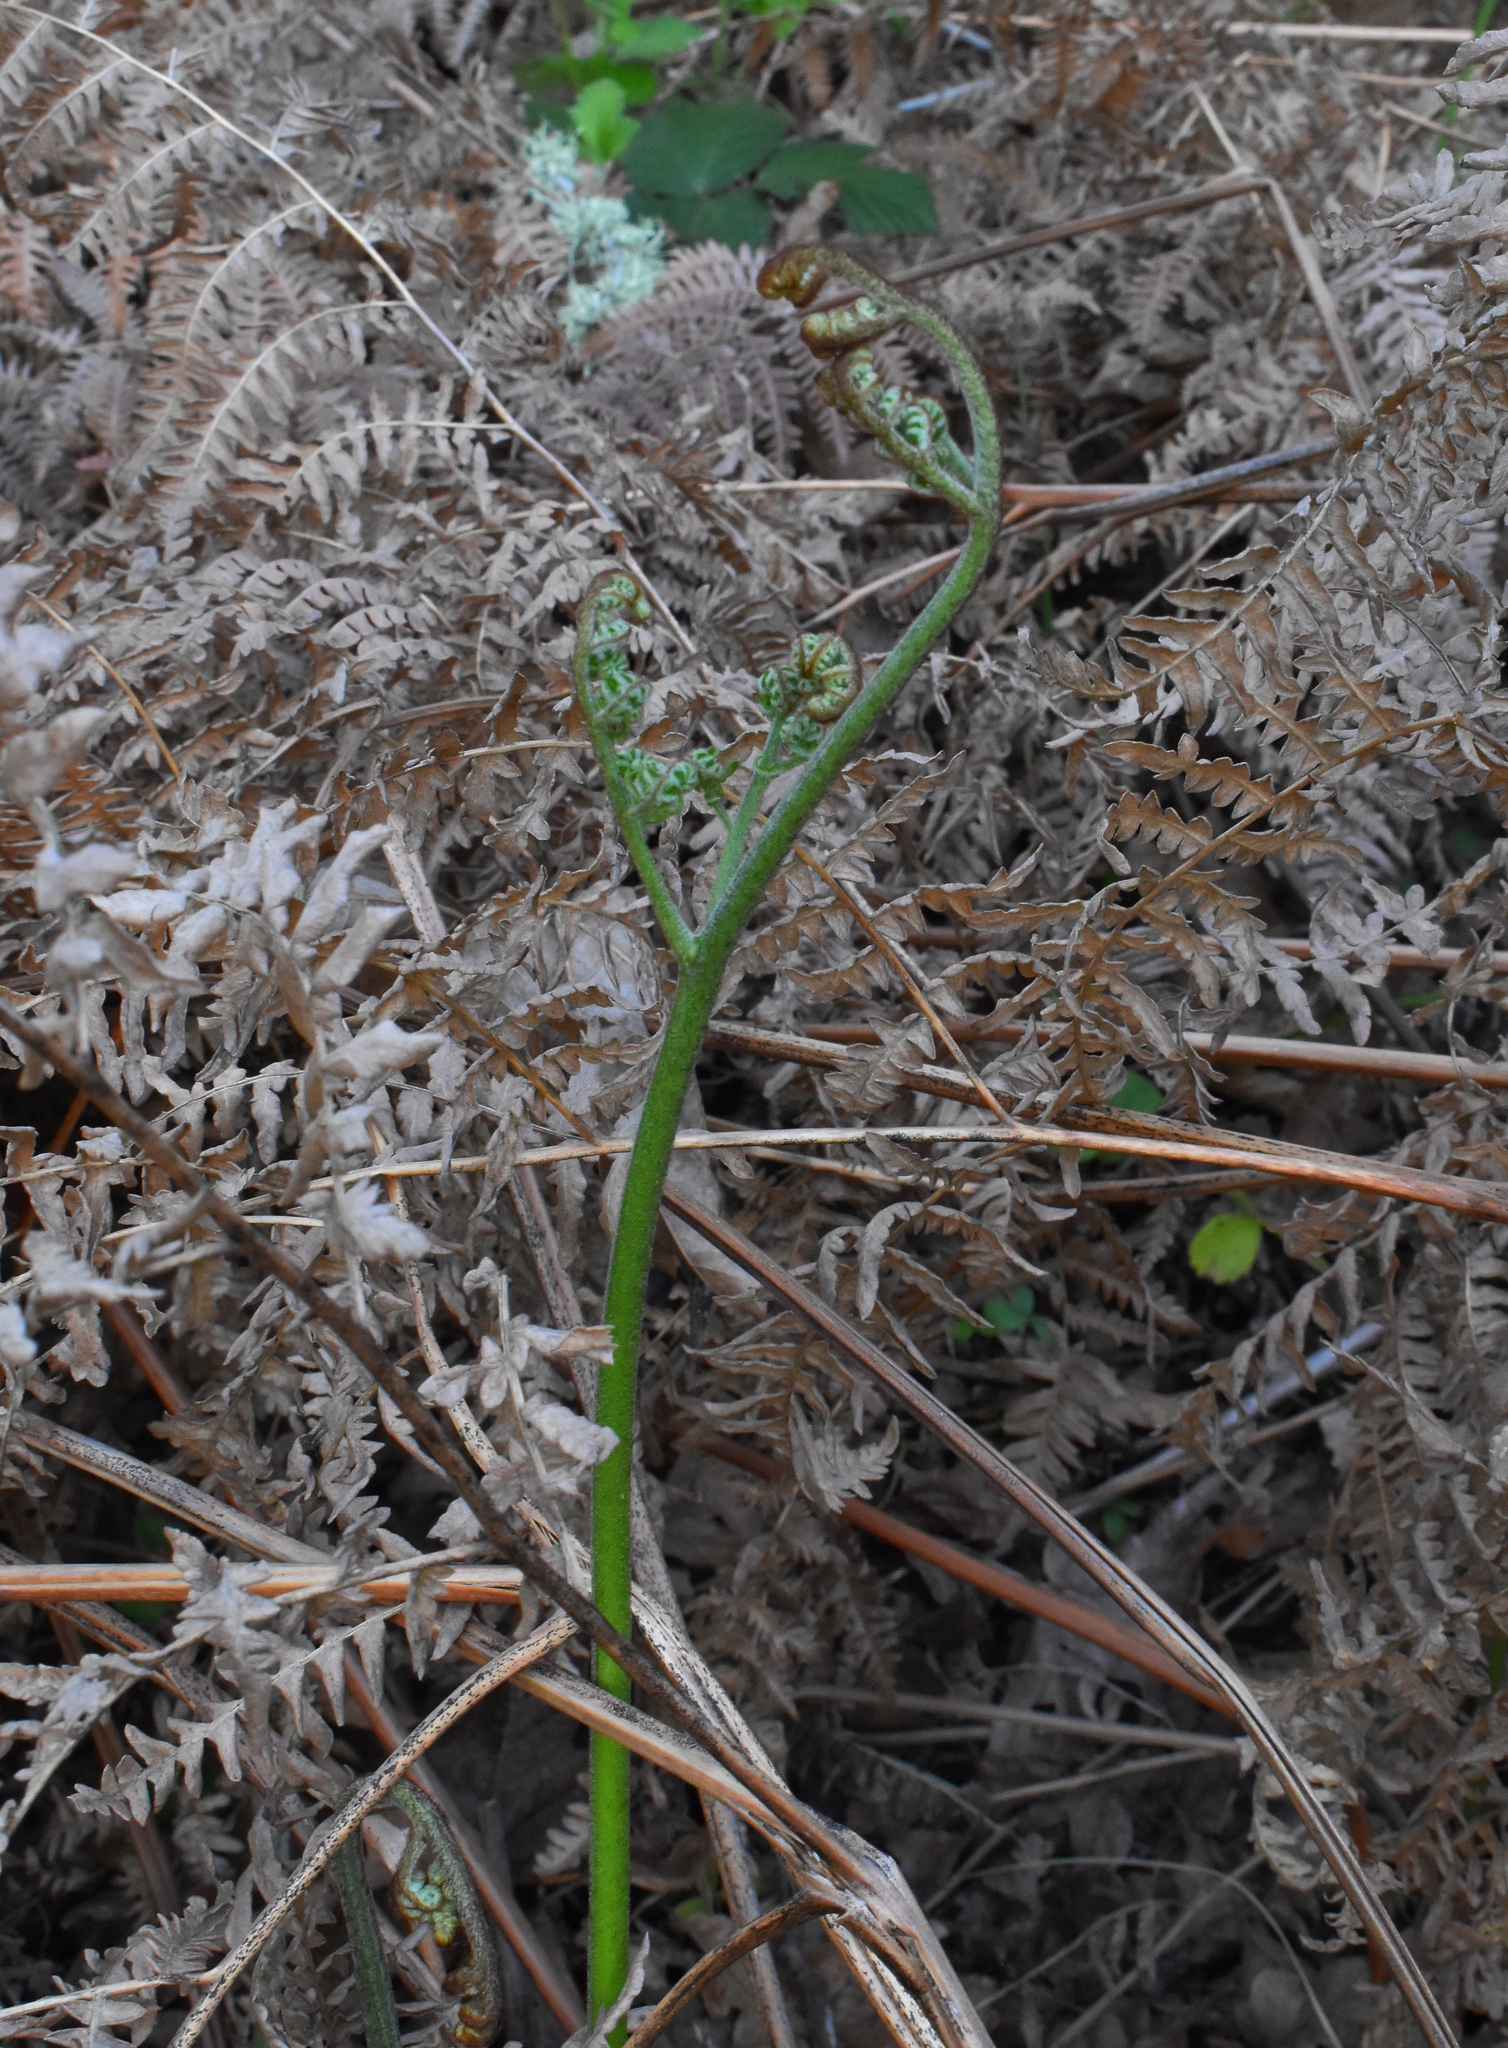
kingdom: Plantae
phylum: Tracheophyta
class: Polypodiopsida
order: Polypodiales
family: Dennstaedtiaceae
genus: Pteridium
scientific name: Pteridium aquilinum
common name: Bracken
